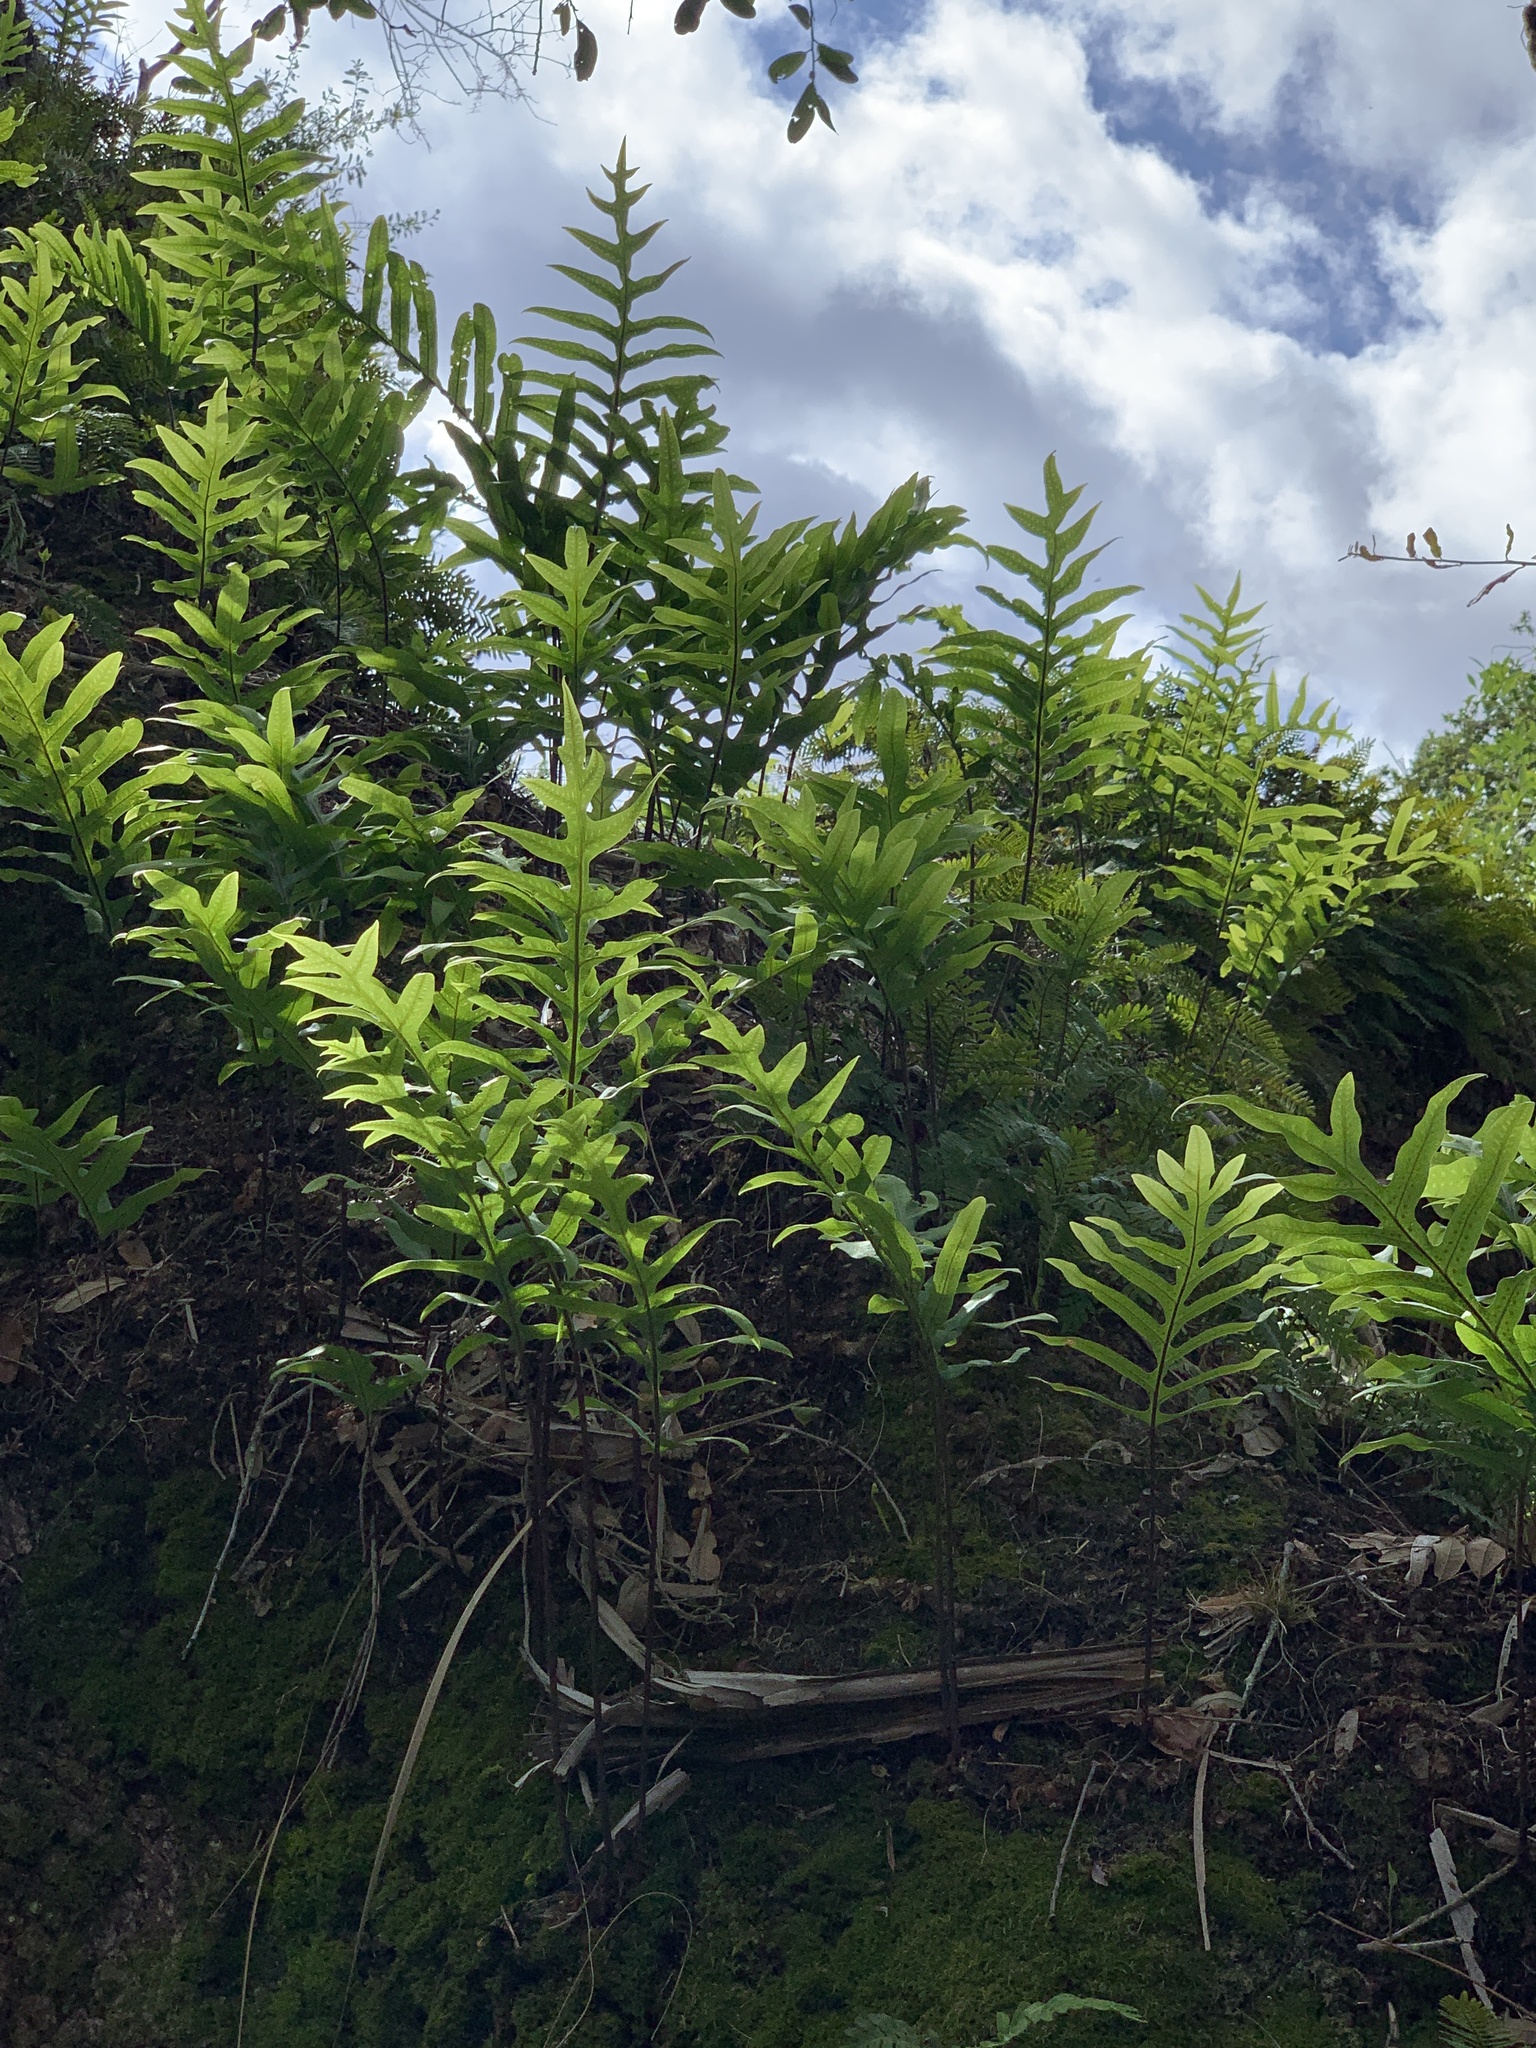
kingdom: Plantae
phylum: Tracheophyta
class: Polypodiopsida
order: Polypodiales
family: Polypodiaceae
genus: Phlebodium
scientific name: Phlebodium aureum
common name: Gold-foot fern
